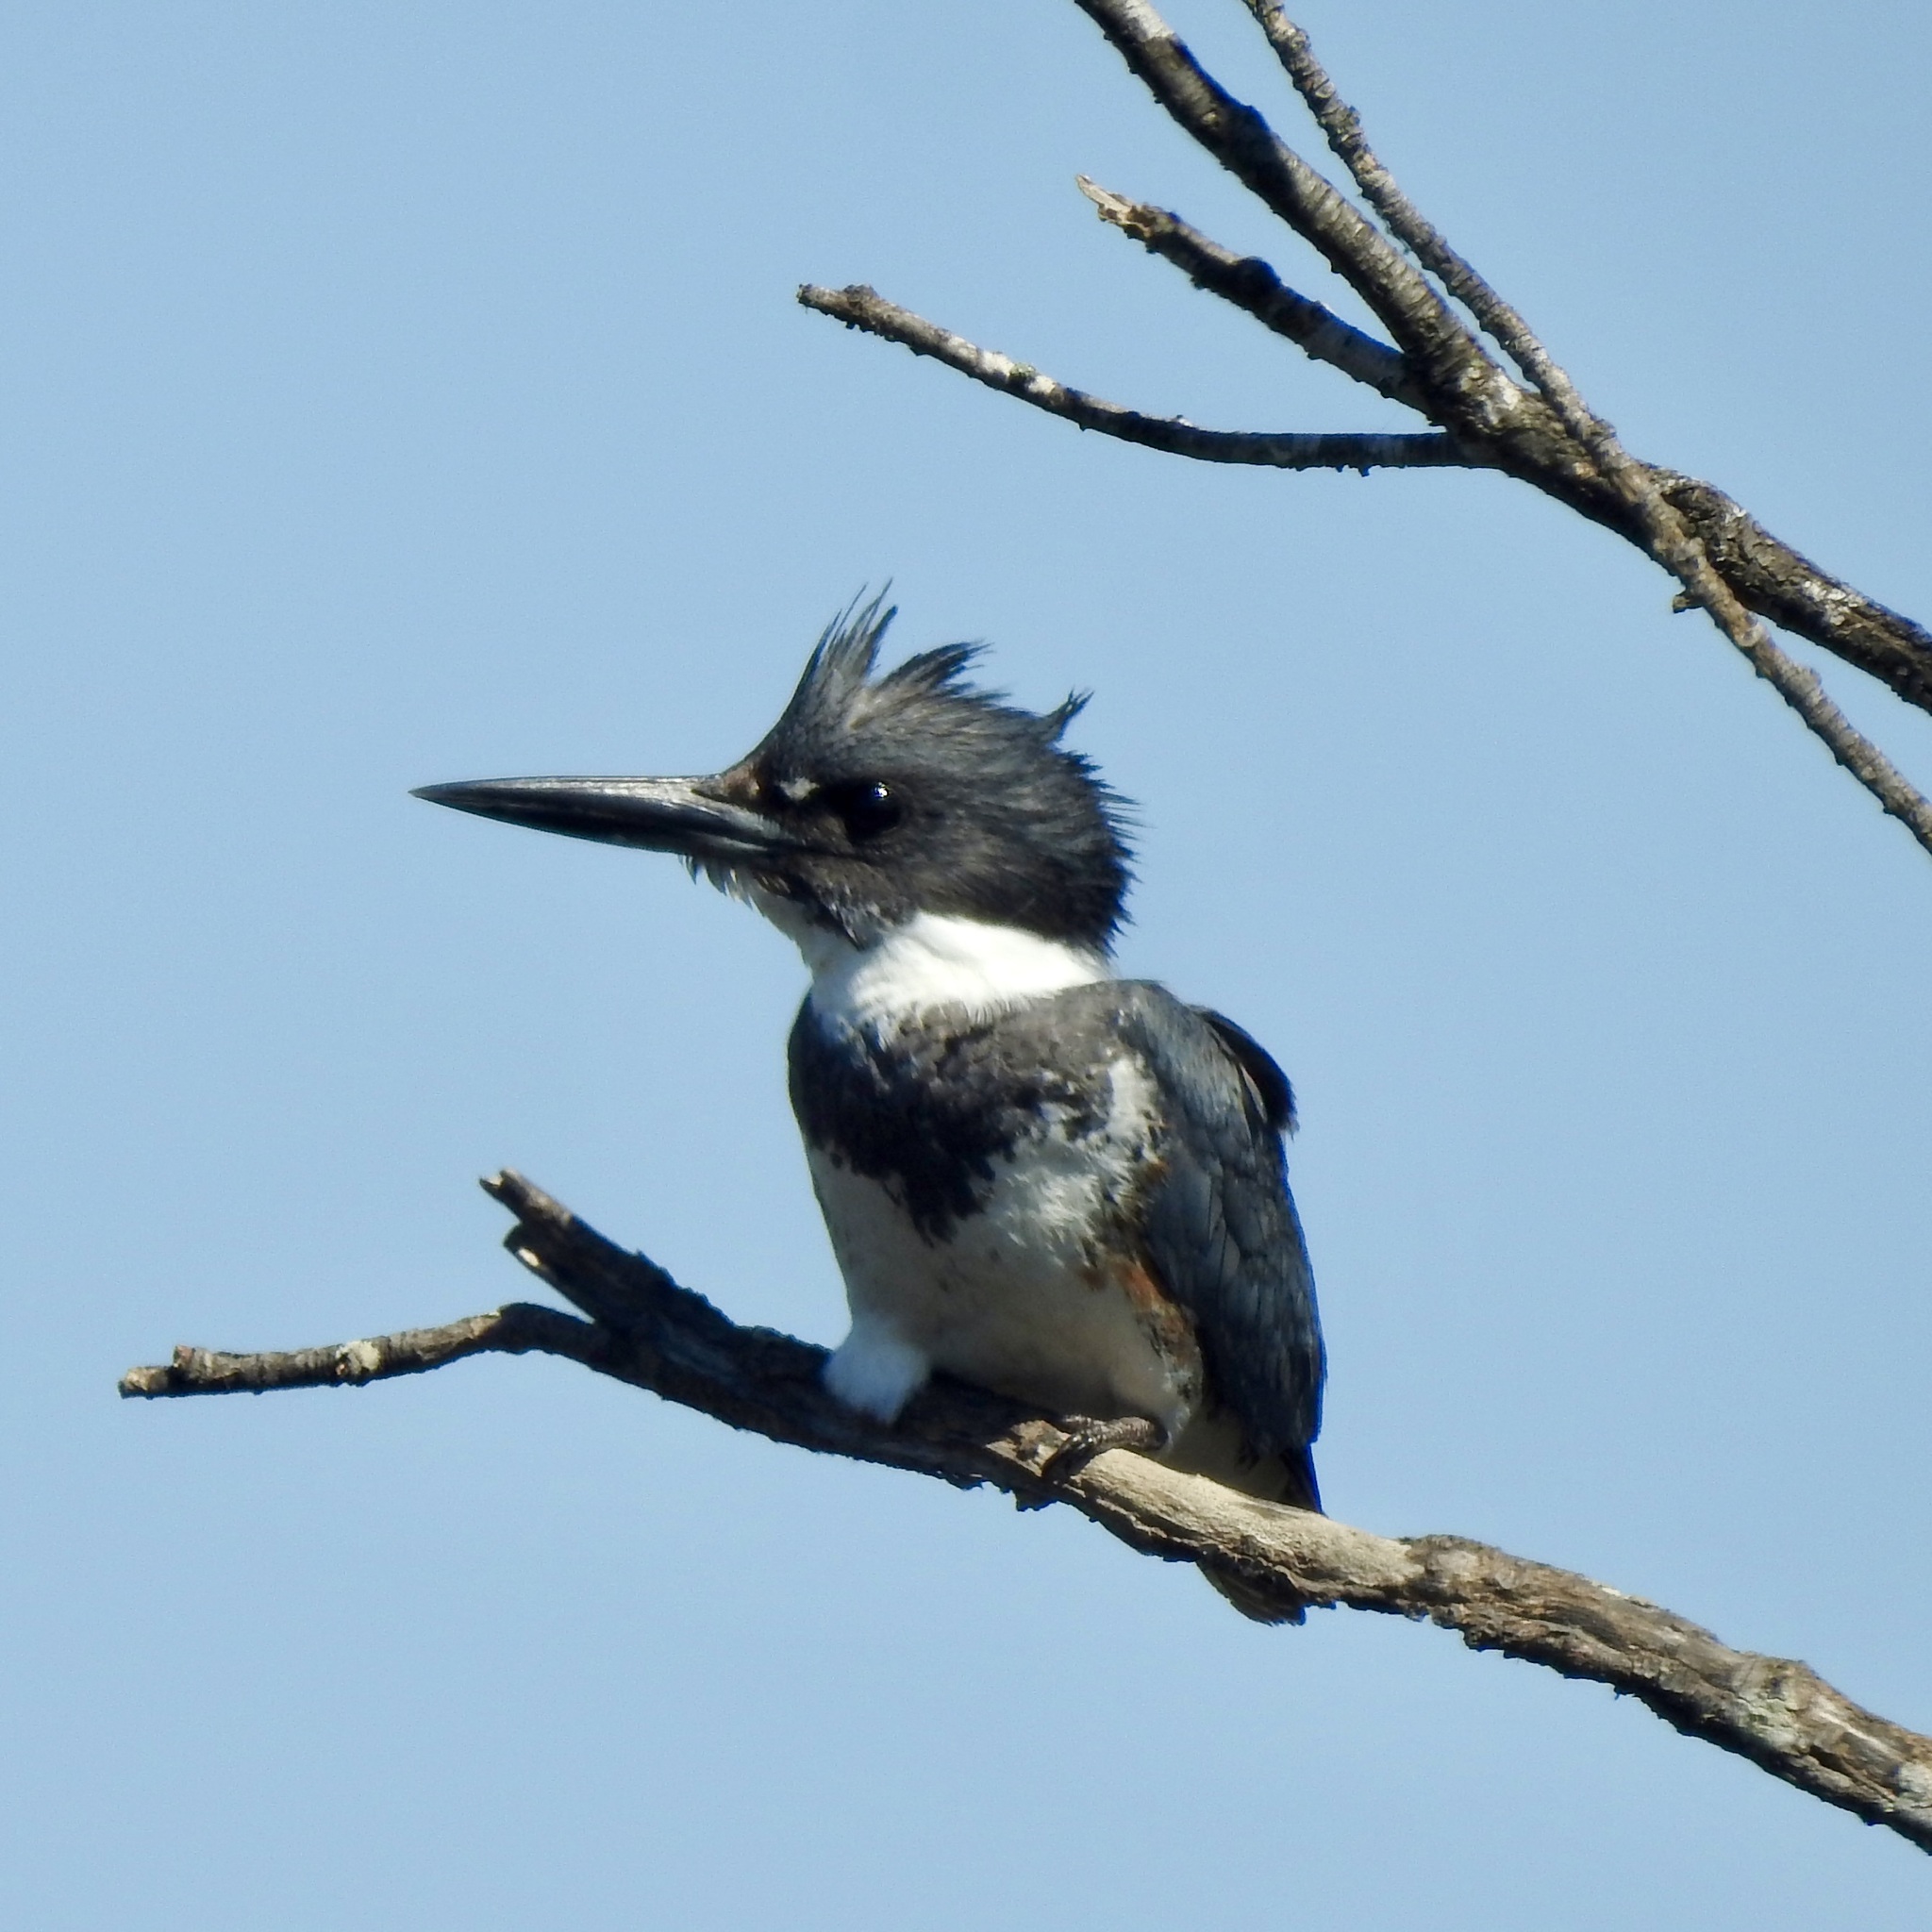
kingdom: Animalia
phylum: Chordata
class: Aves
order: Coraciiformes
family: Alcedinidae
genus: Megaceryle
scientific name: Megaceryle alcyon
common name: Belted kingfisher
